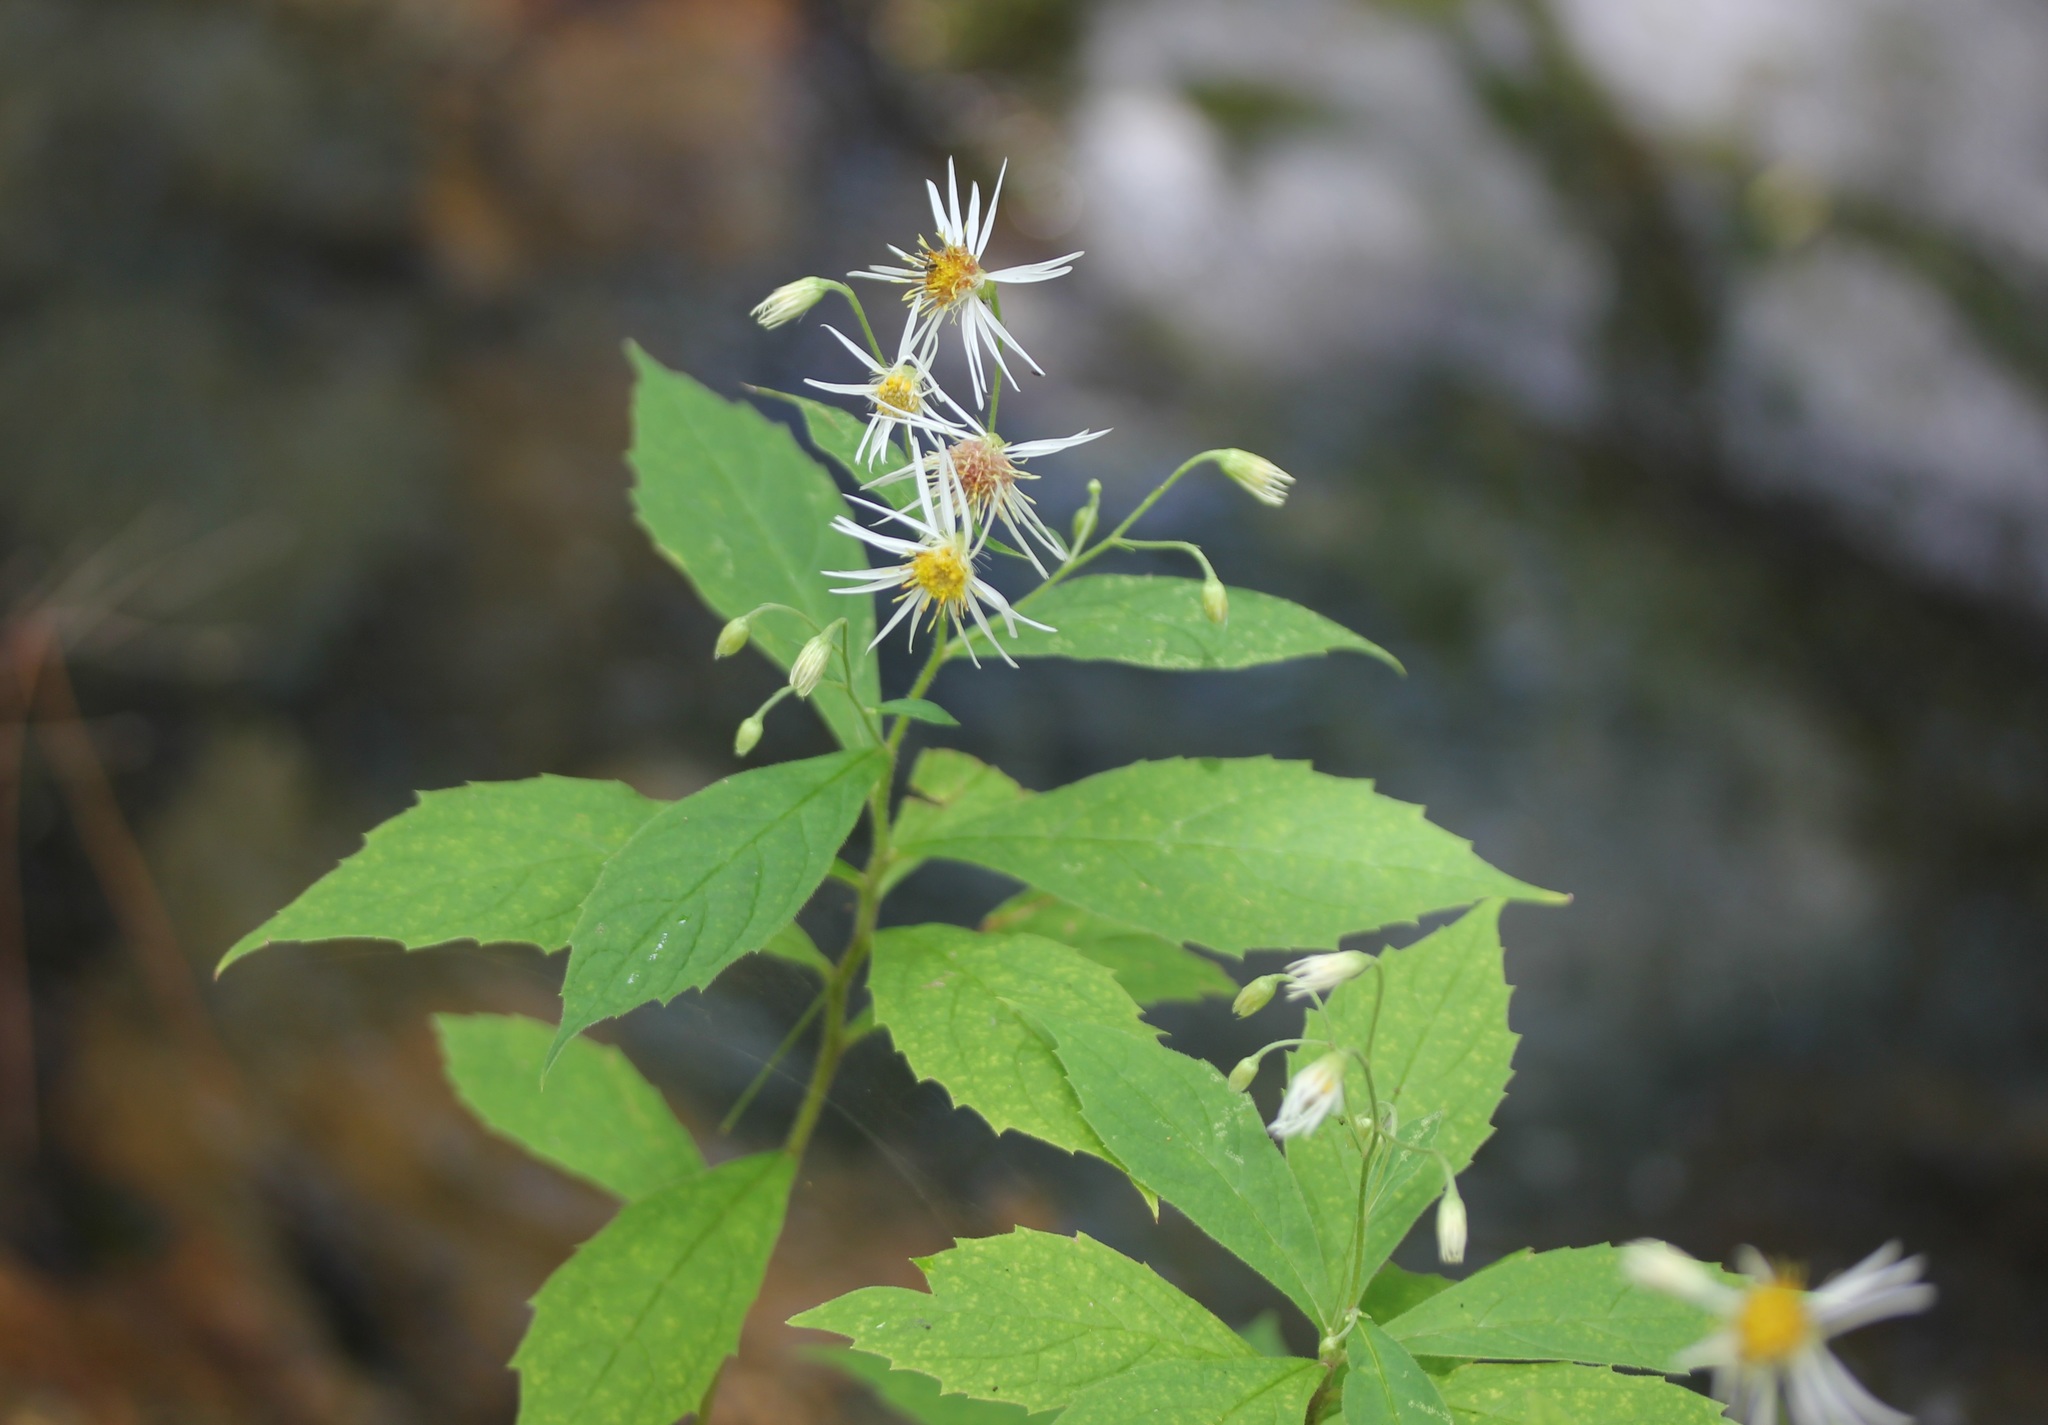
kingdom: Plantae
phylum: Tracheophyta
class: Magnoliopsida
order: Asterales
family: Asteraceae
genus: Oclemena
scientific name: Oclemena acuminata
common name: Mountain aster
